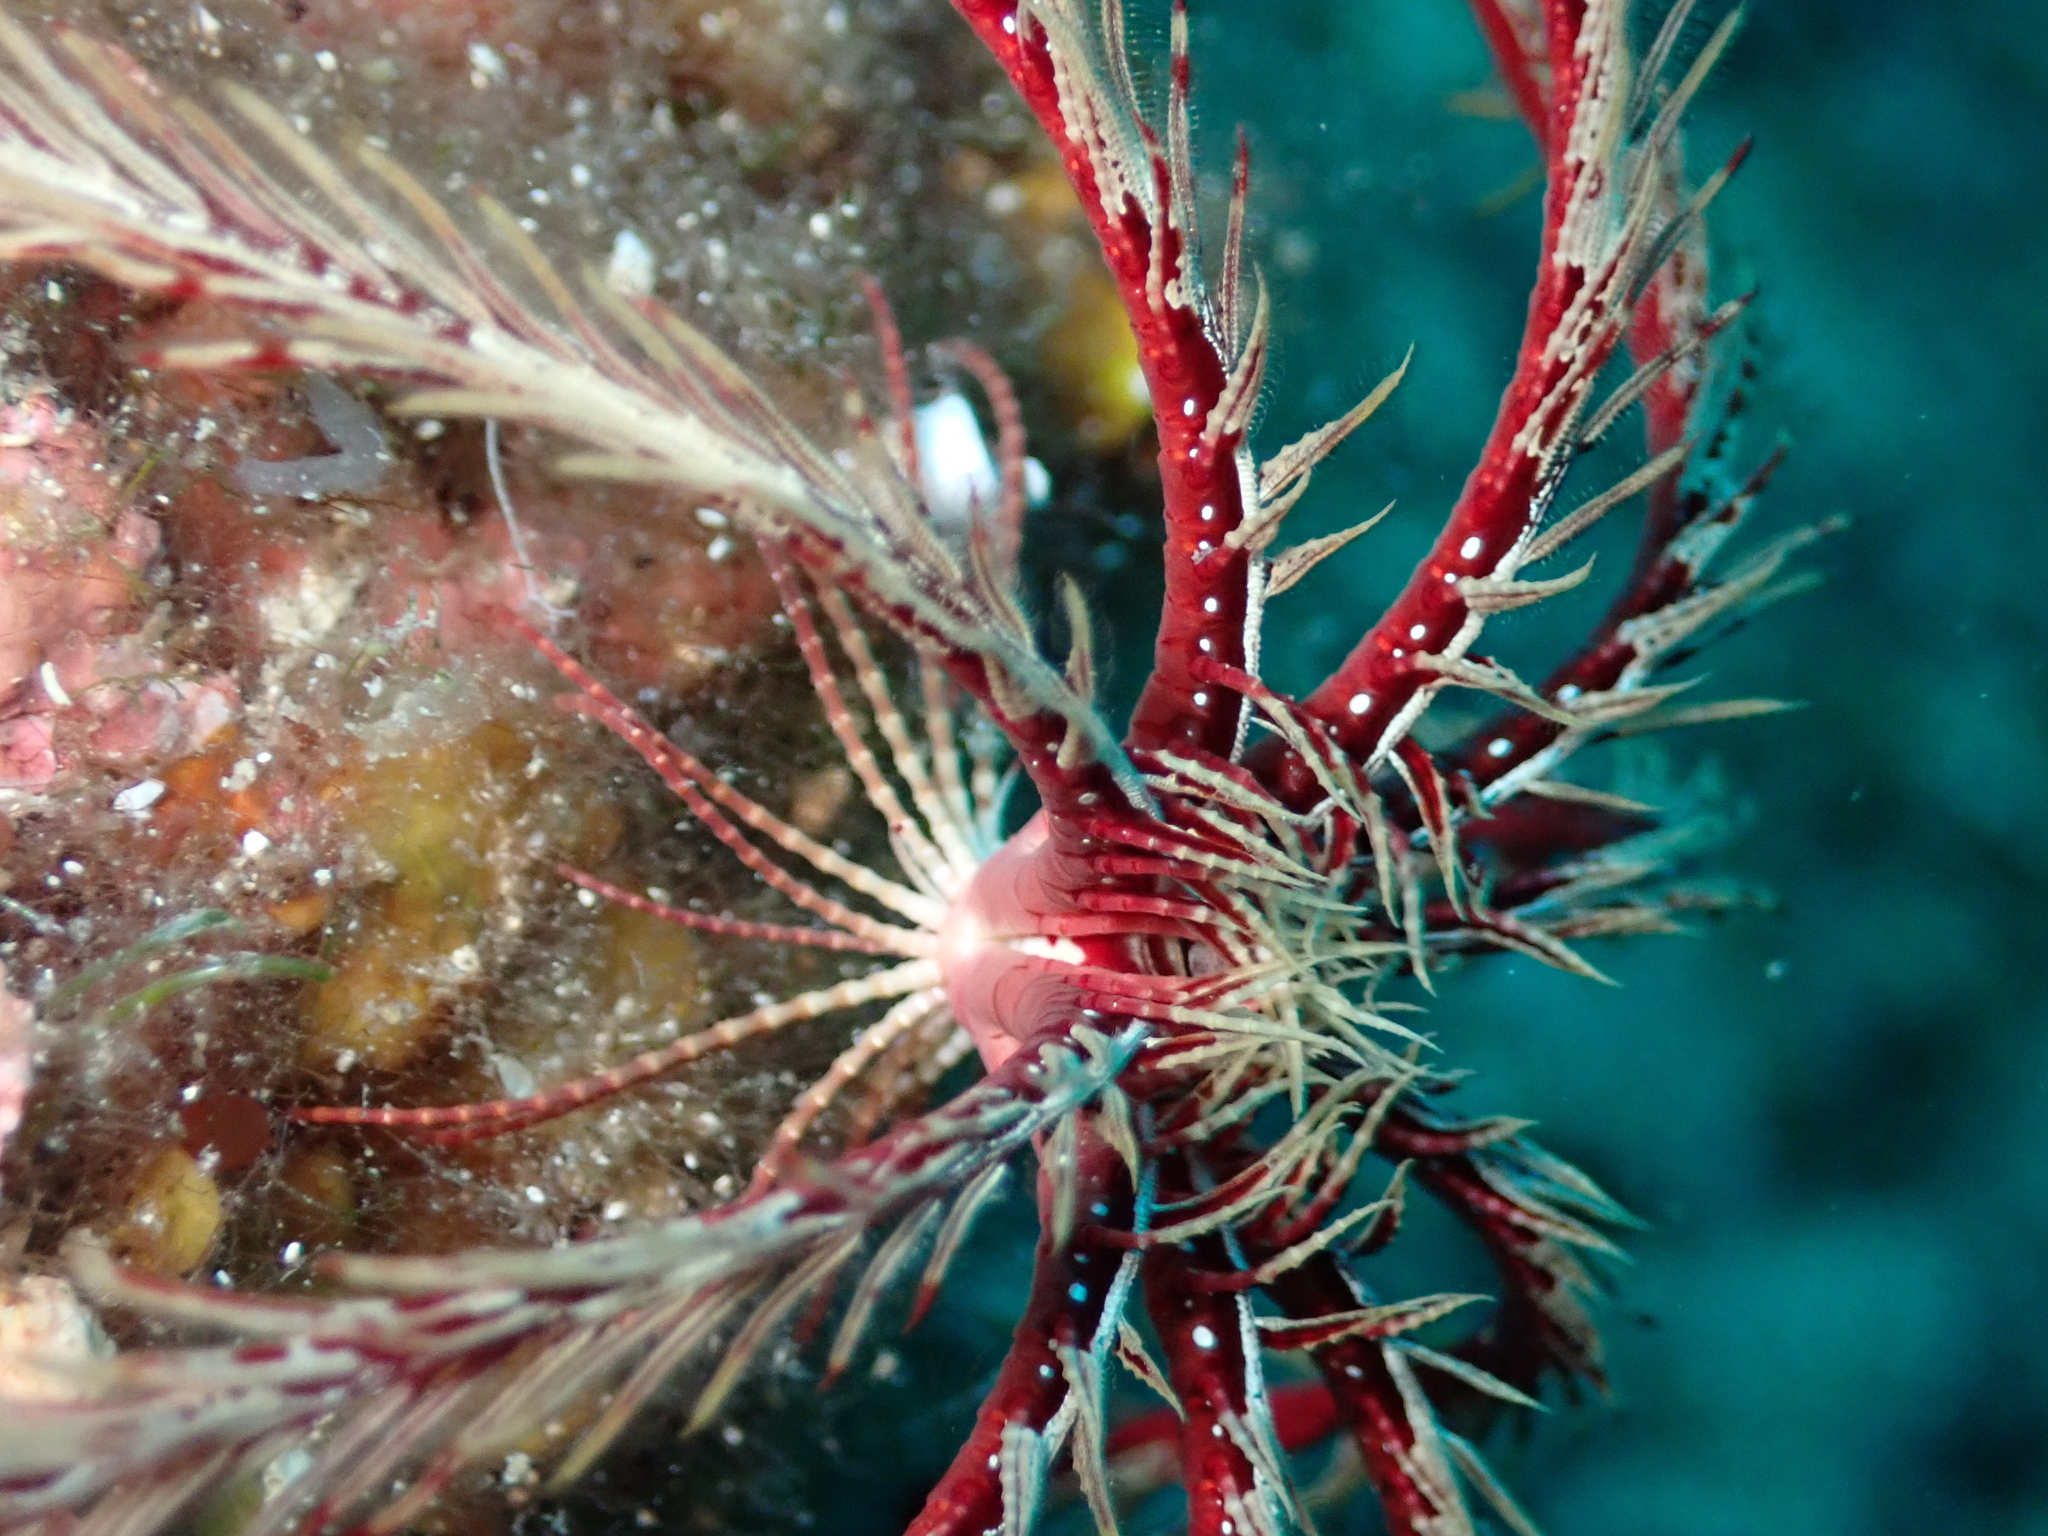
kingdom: Animalia
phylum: Echinodermata
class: Crinoidea
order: Comatulida
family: Antedonidae
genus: Antedon
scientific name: Antedon mediterranea
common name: Feather star
